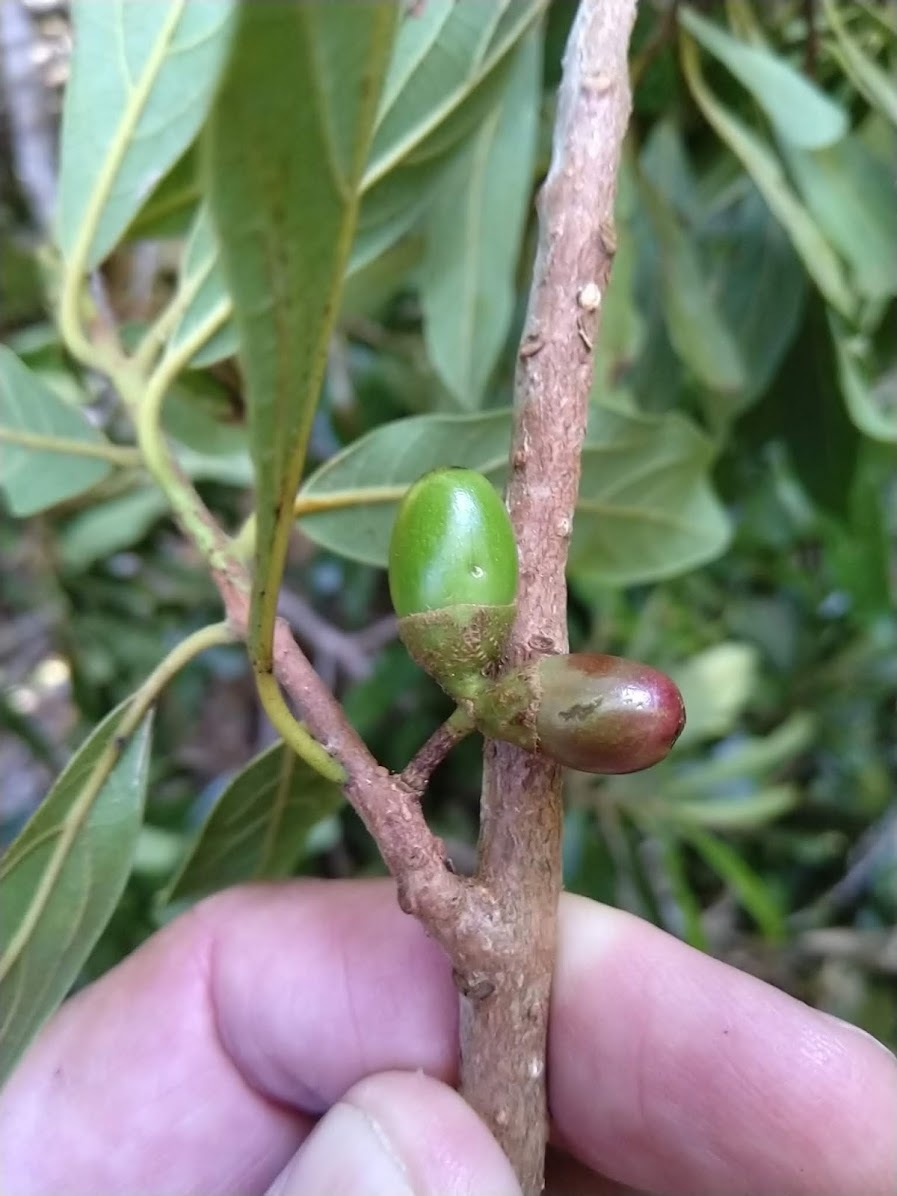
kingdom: Plantae
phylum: Tracheophyta
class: Magnoliopsida
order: Laurales
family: Lauraceae
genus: Litsea
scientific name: Litsea australis
